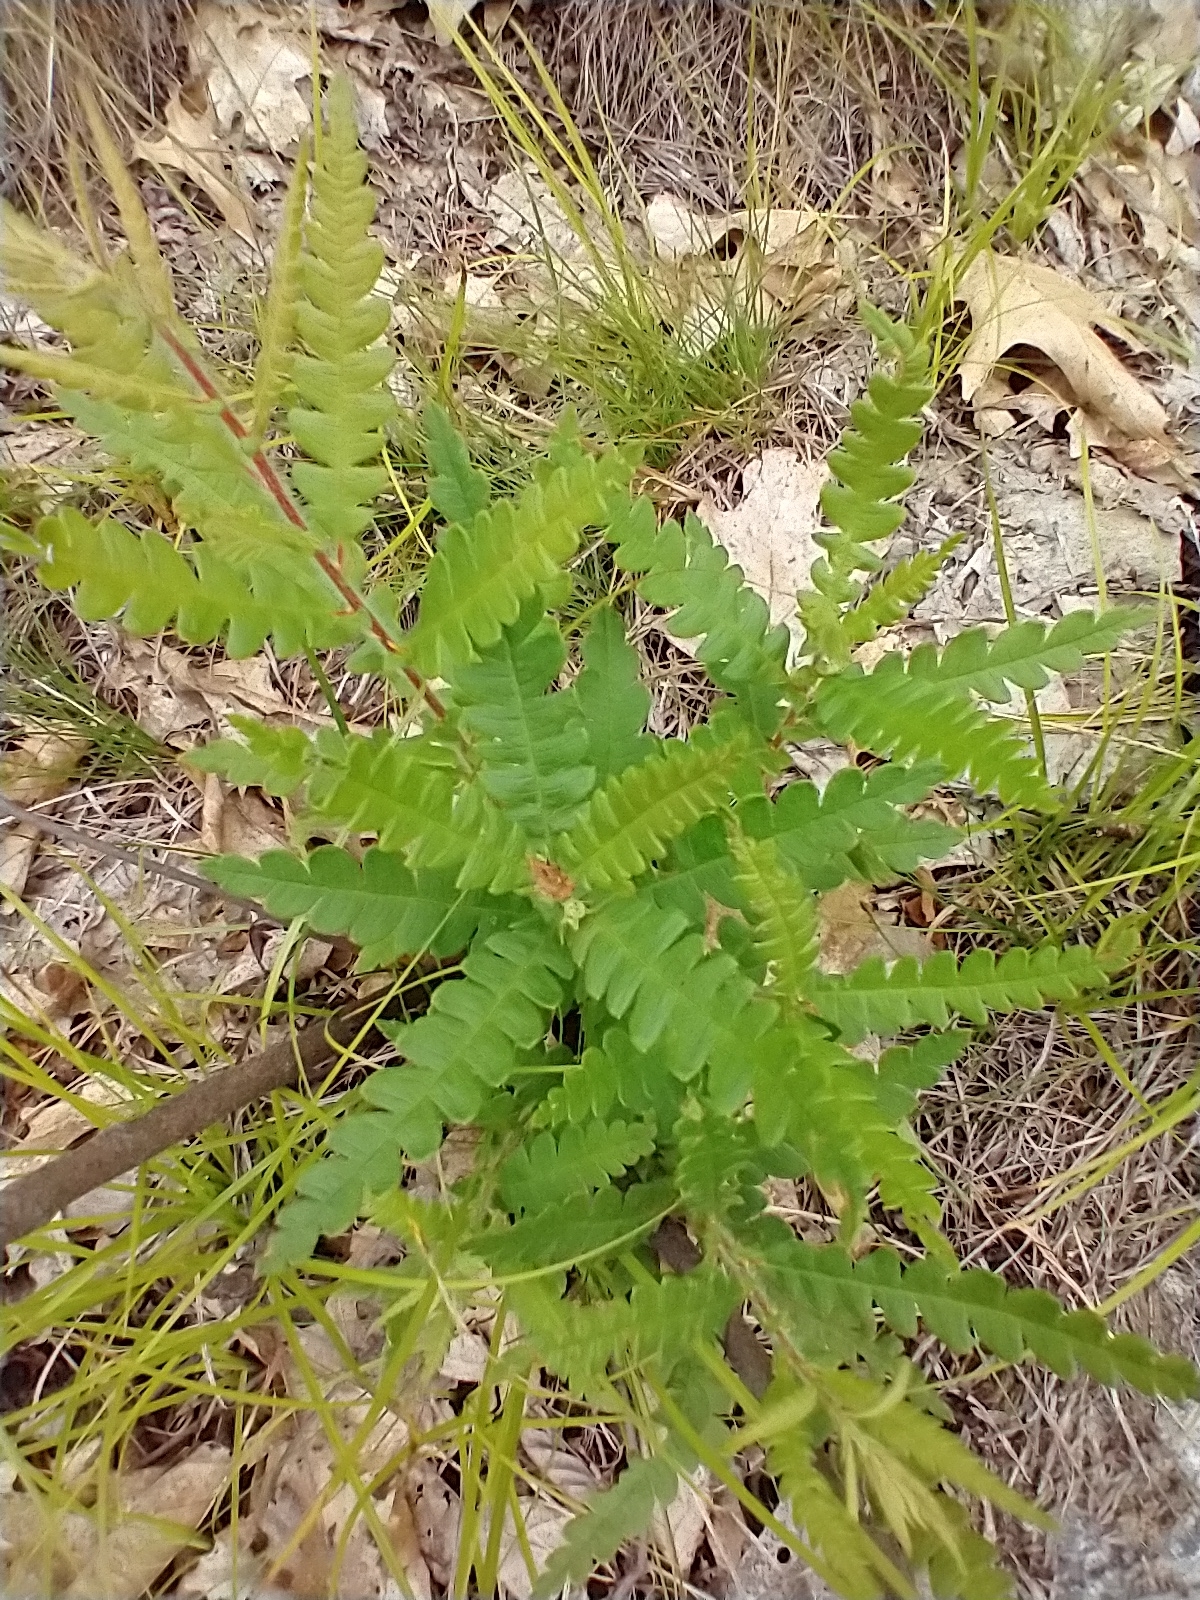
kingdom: Plantae
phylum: Tracheophyta
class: Magnoliopsida
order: Fagales
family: Myricaceae
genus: Comptonia
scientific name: Comptonia peregrina
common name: Sweet-fern
